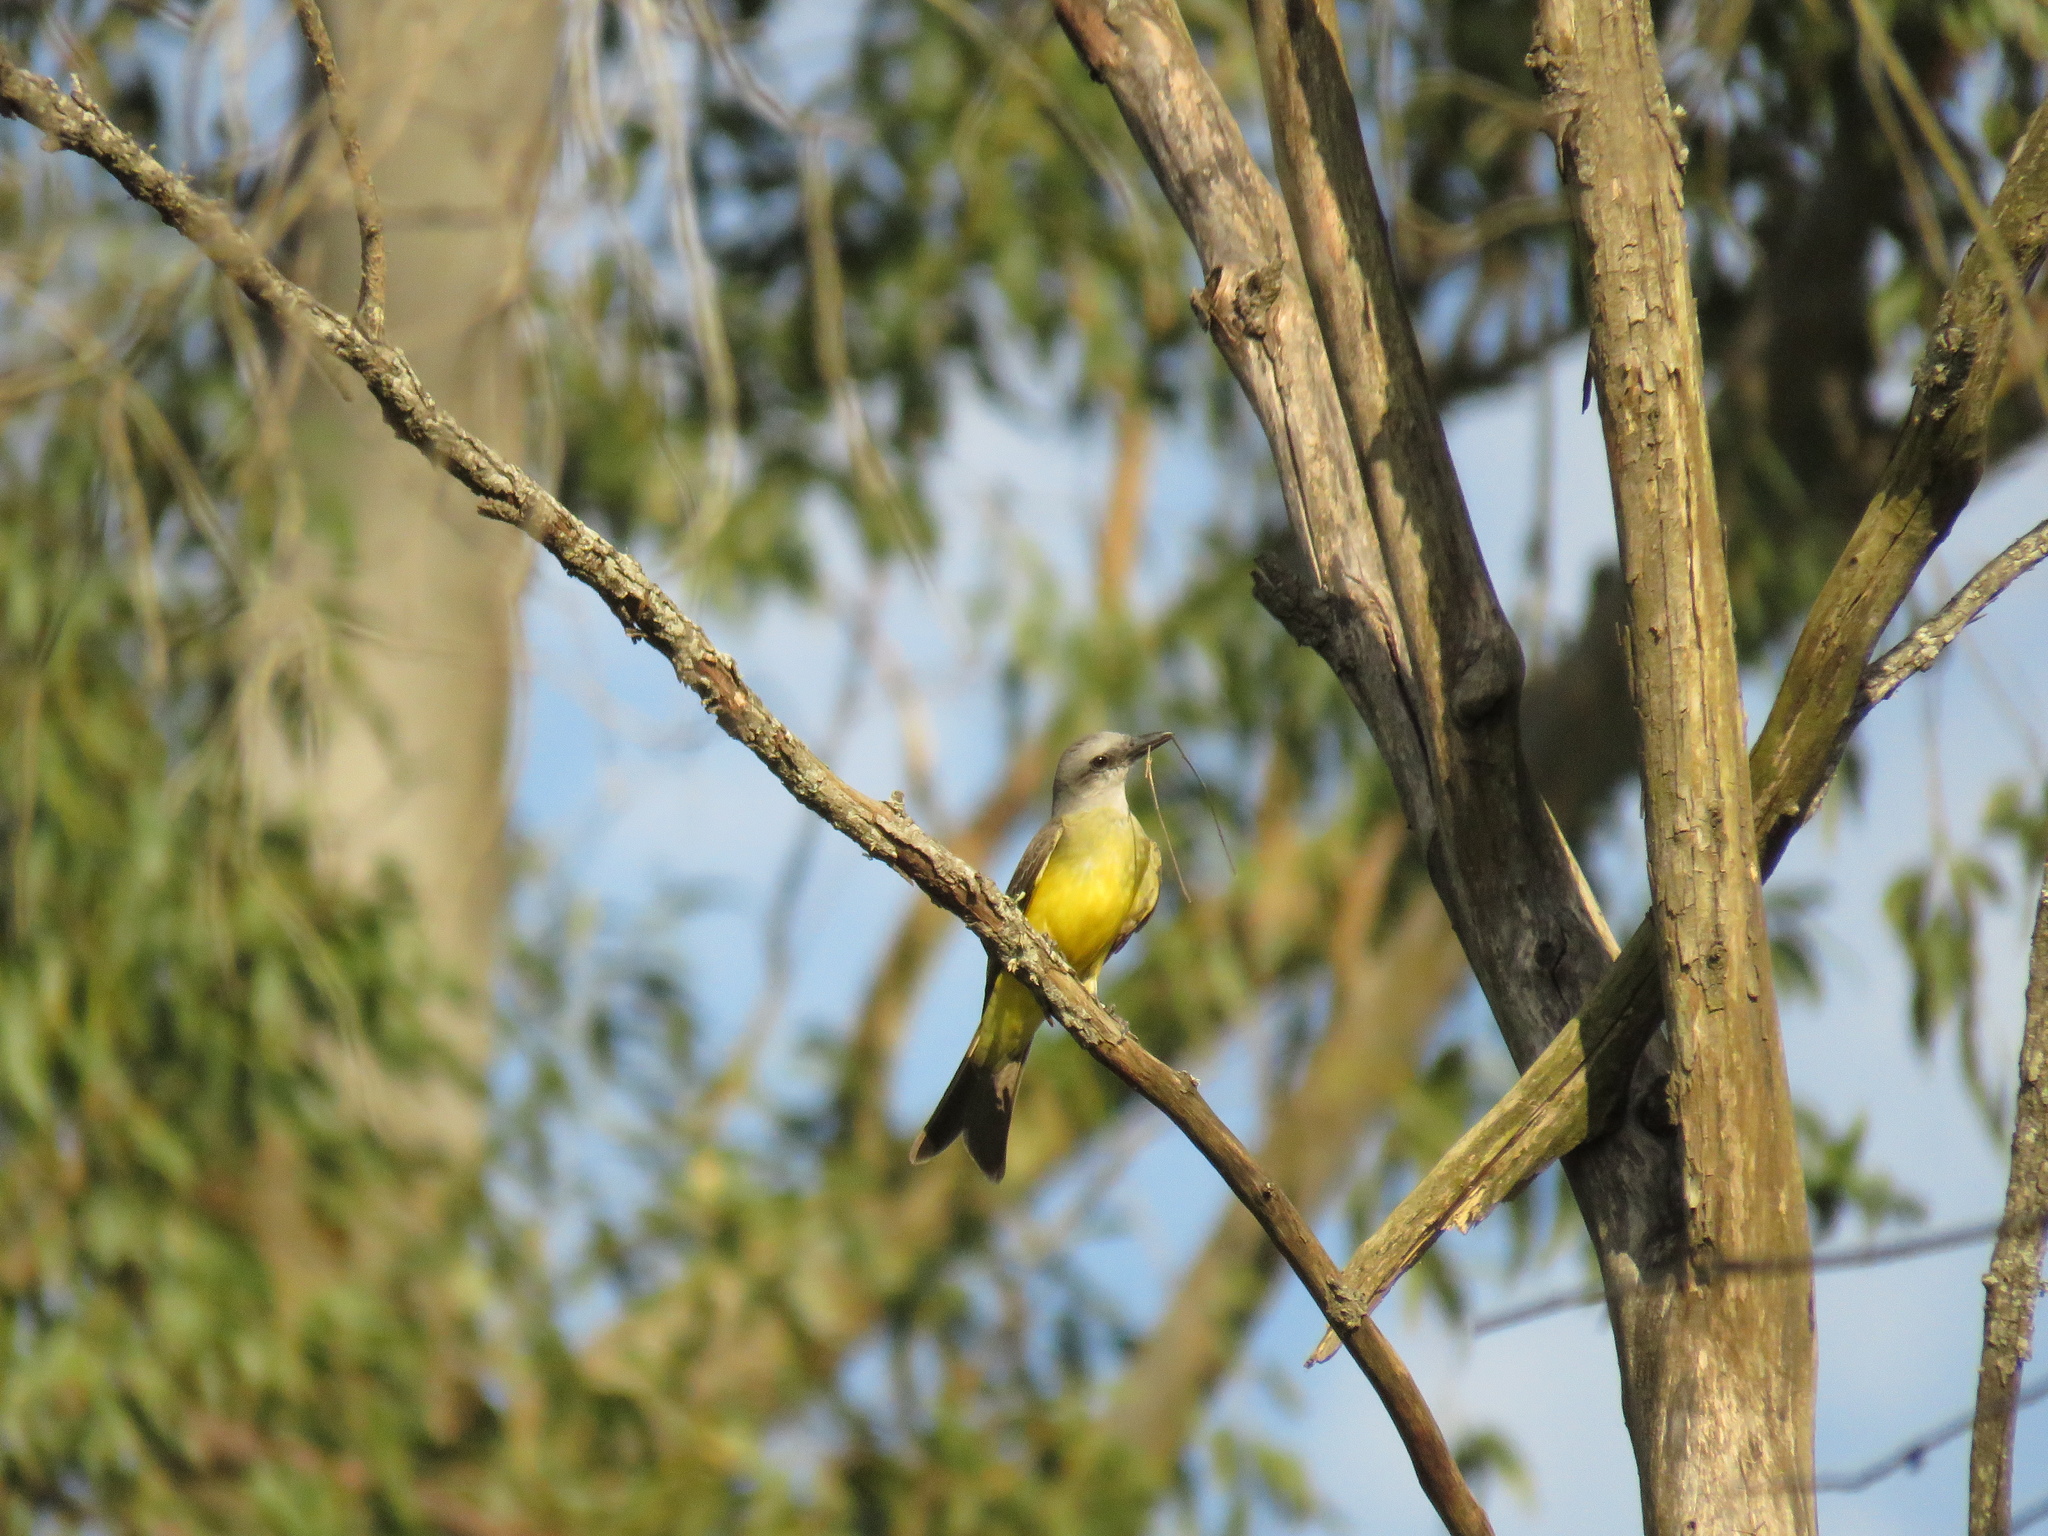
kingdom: Animalia
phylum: Chordata
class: Aves
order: Passeriformes
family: Tyrannidae
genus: Tyrannus
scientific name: Tyrannus melancholicus
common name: Tropical kingbird
